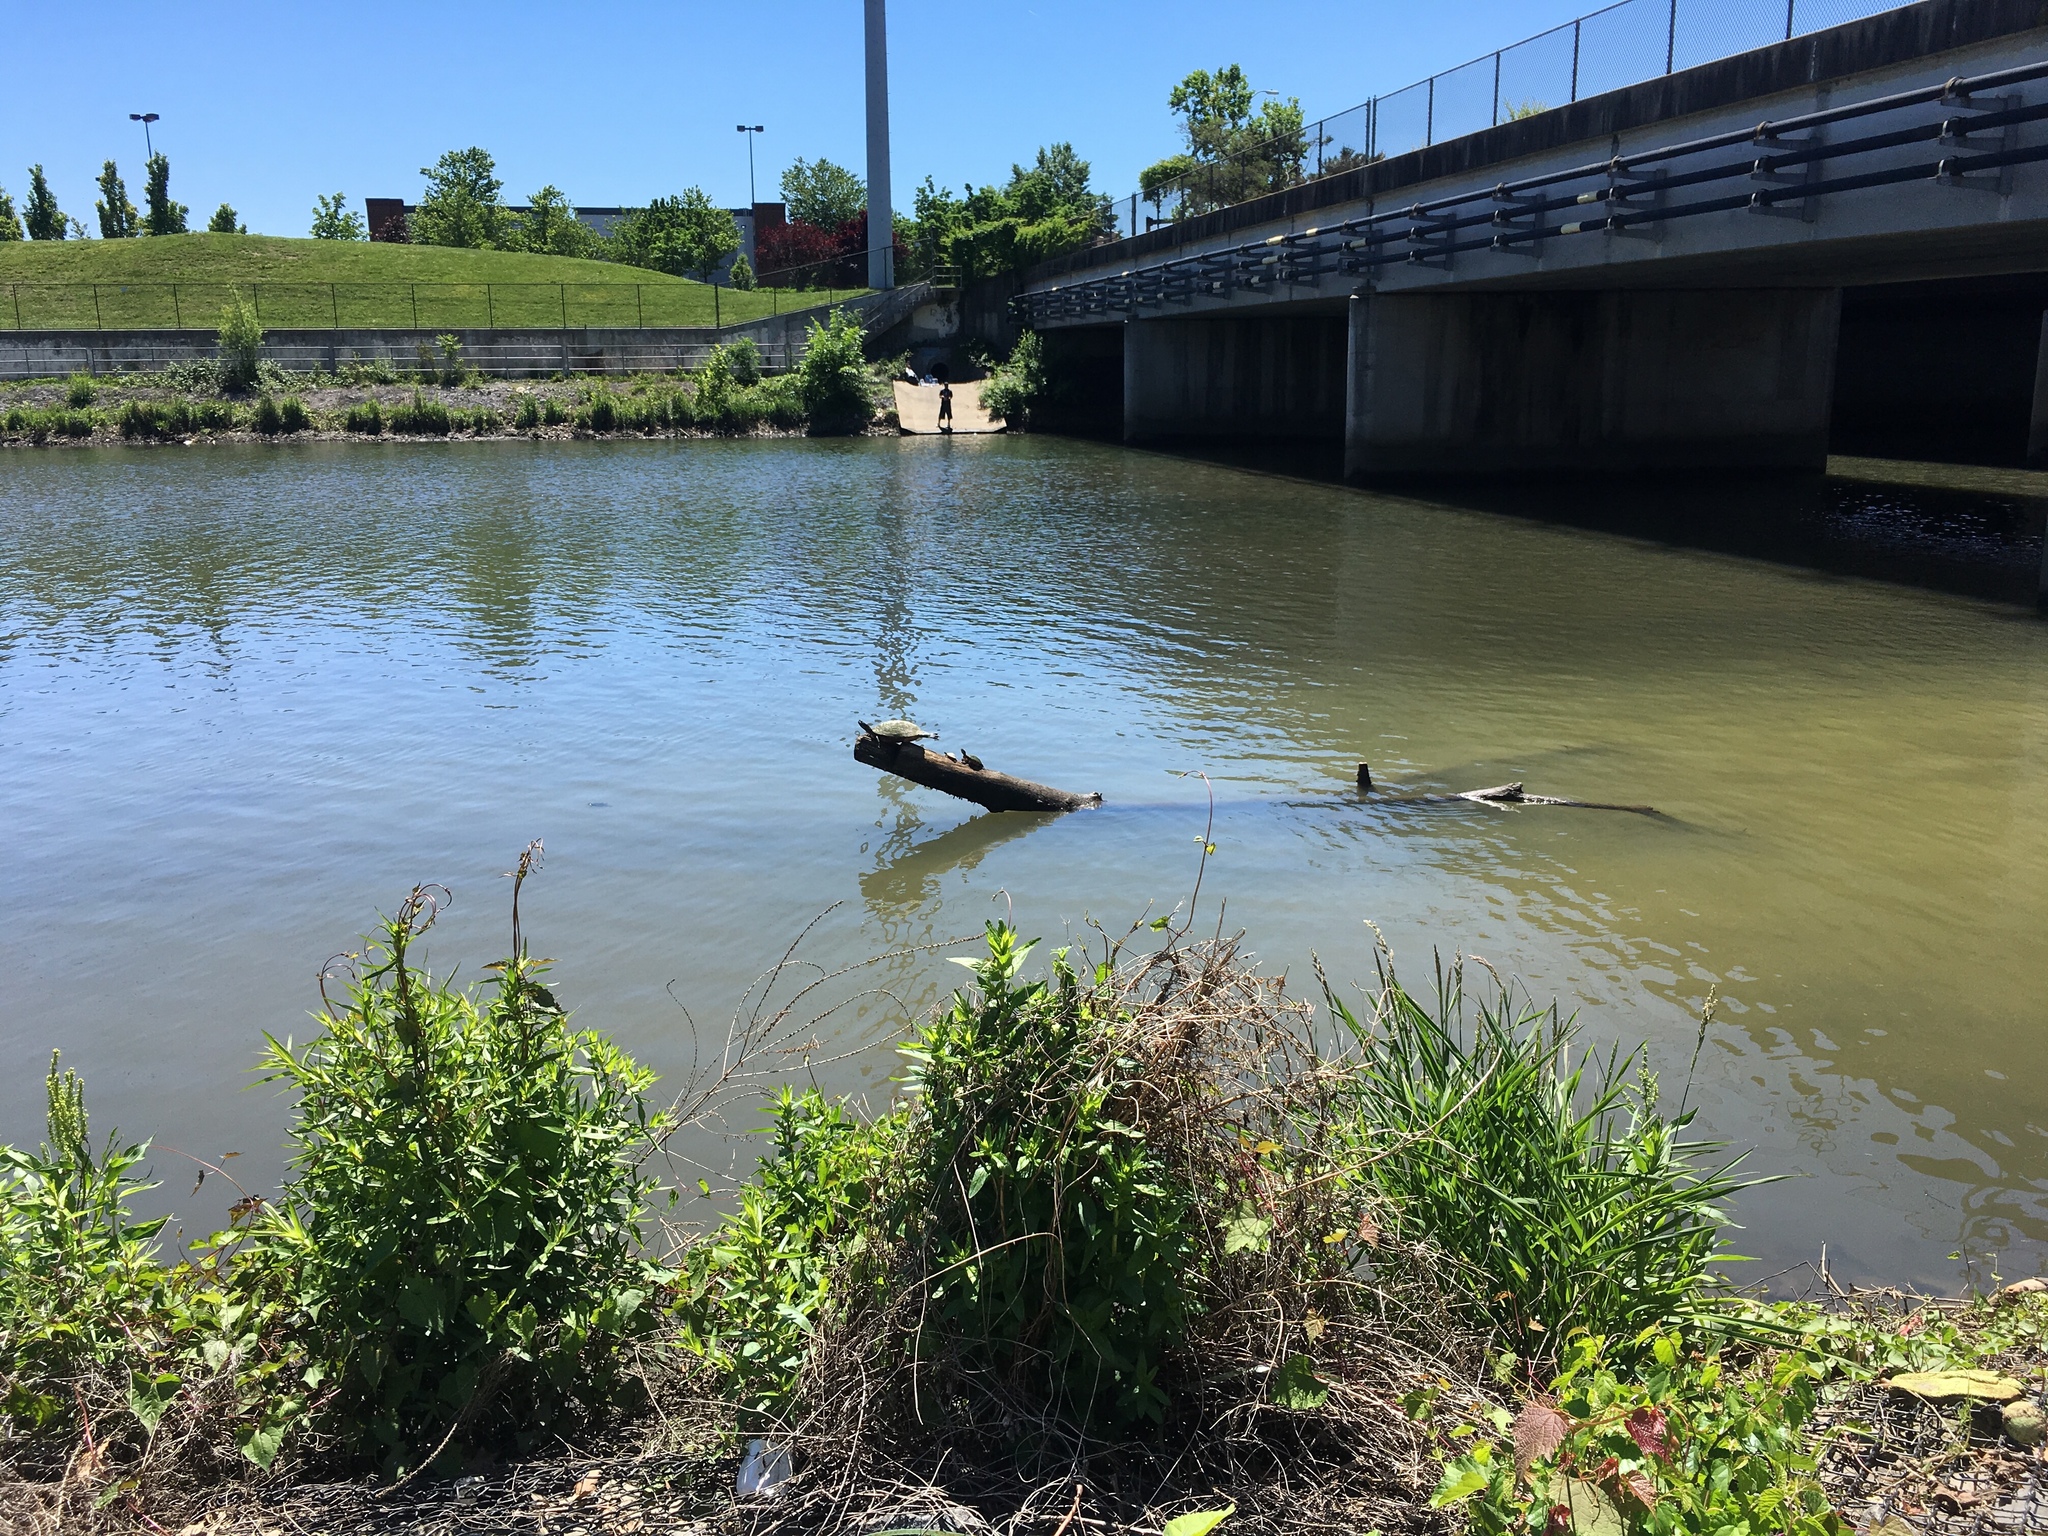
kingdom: Animalia
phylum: Chordata
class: Testudines
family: Emydidae
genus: Pseudemys
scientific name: Pseudemys rubriventris
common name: American red-bellied turtle
